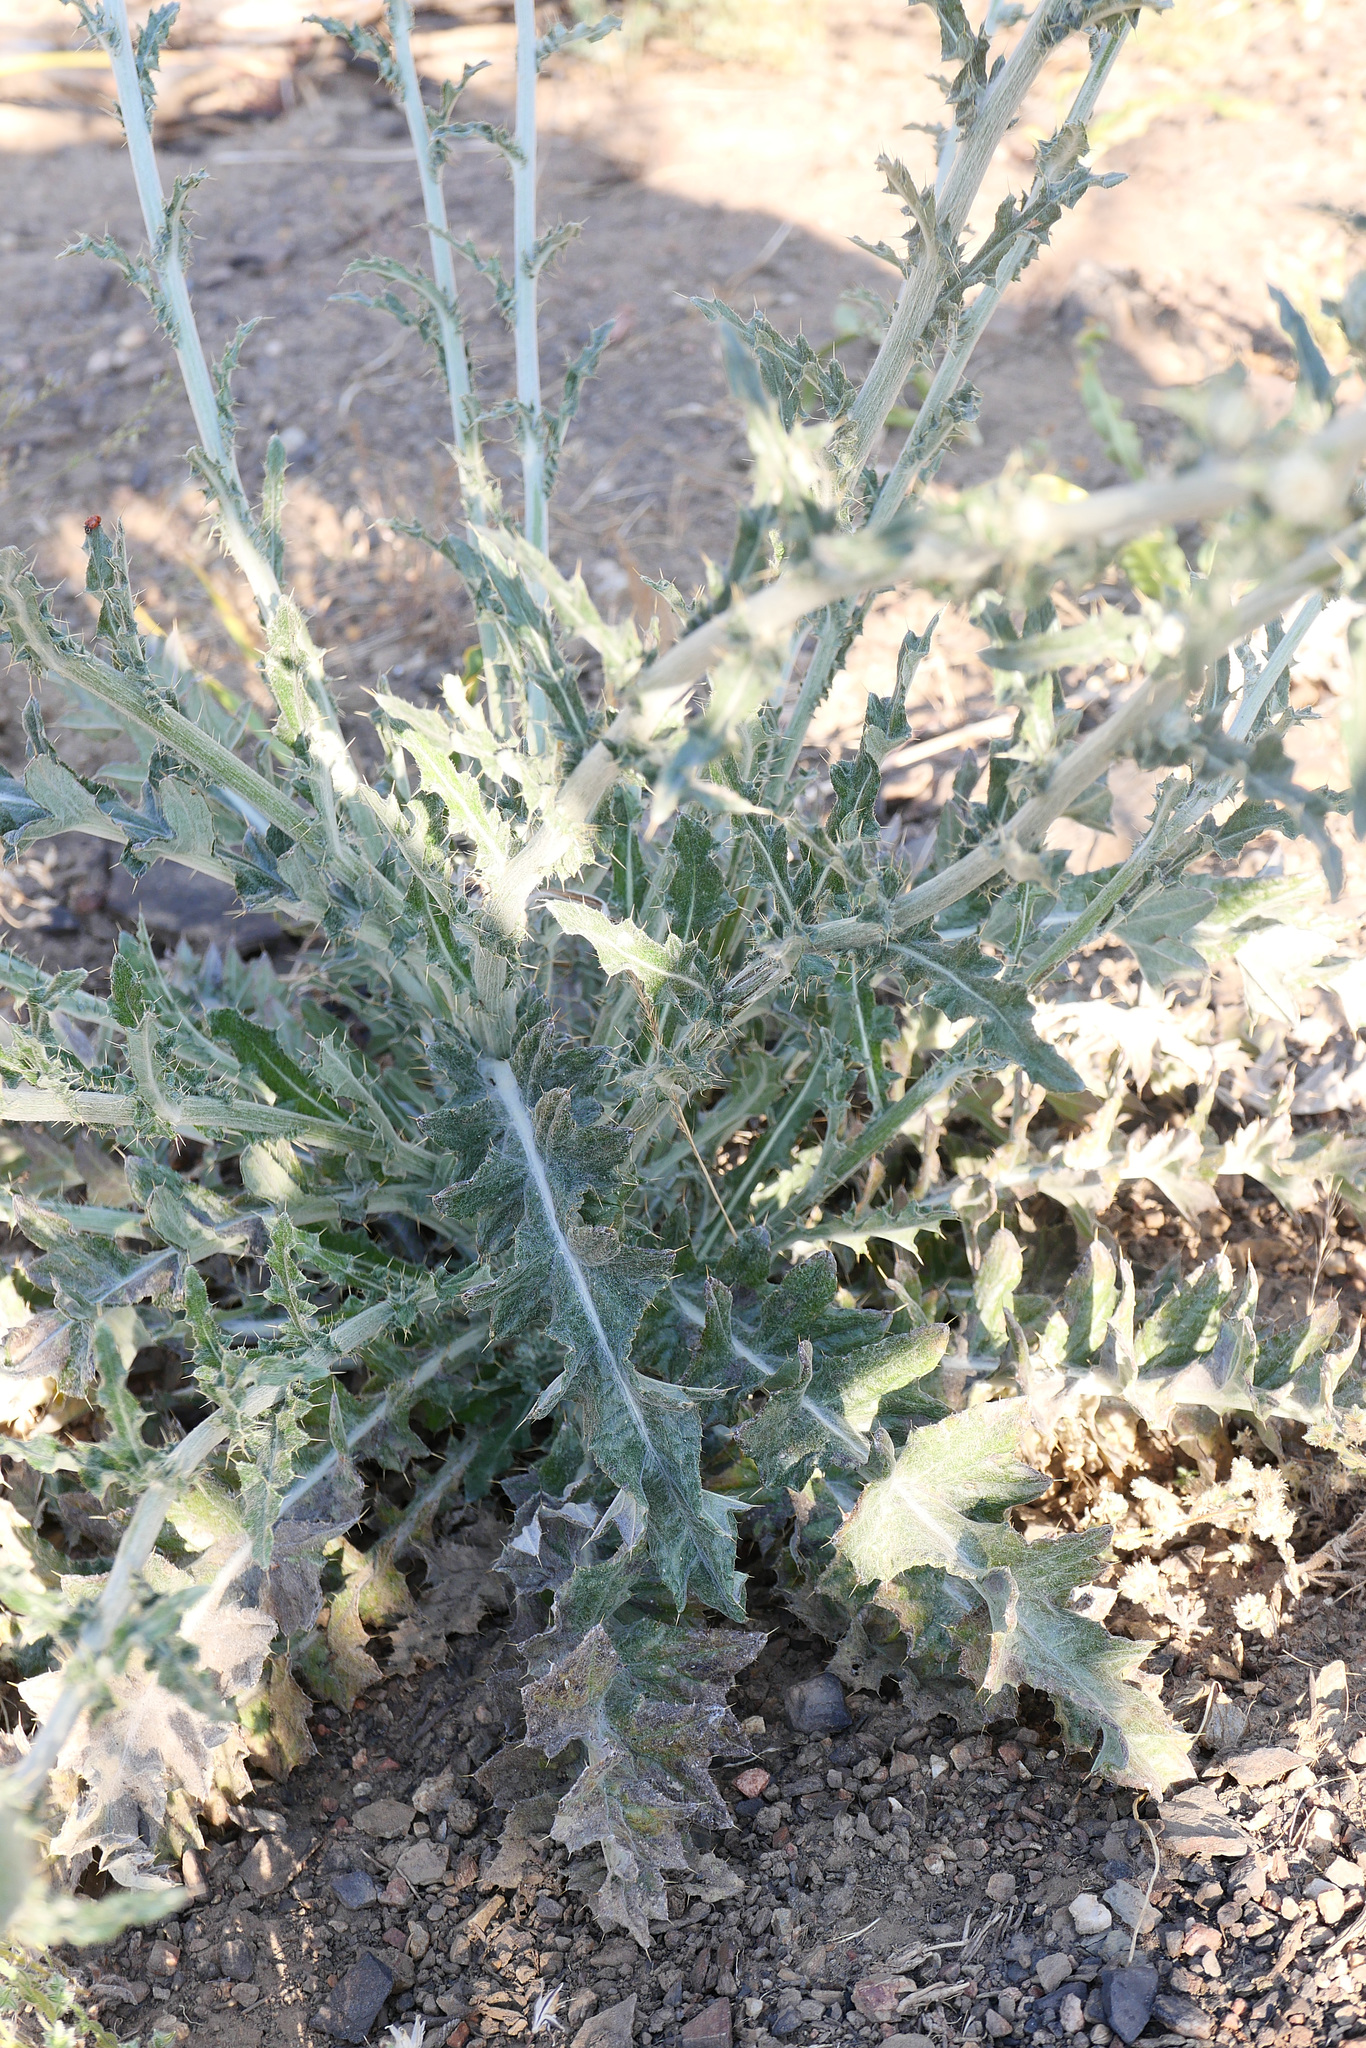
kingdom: Plantae
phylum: Tracheophyta
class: Magnoliopsida
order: Asterales
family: Asteraceae
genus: Cirsium
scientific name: Cirsium occidentale
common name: Western thistle
